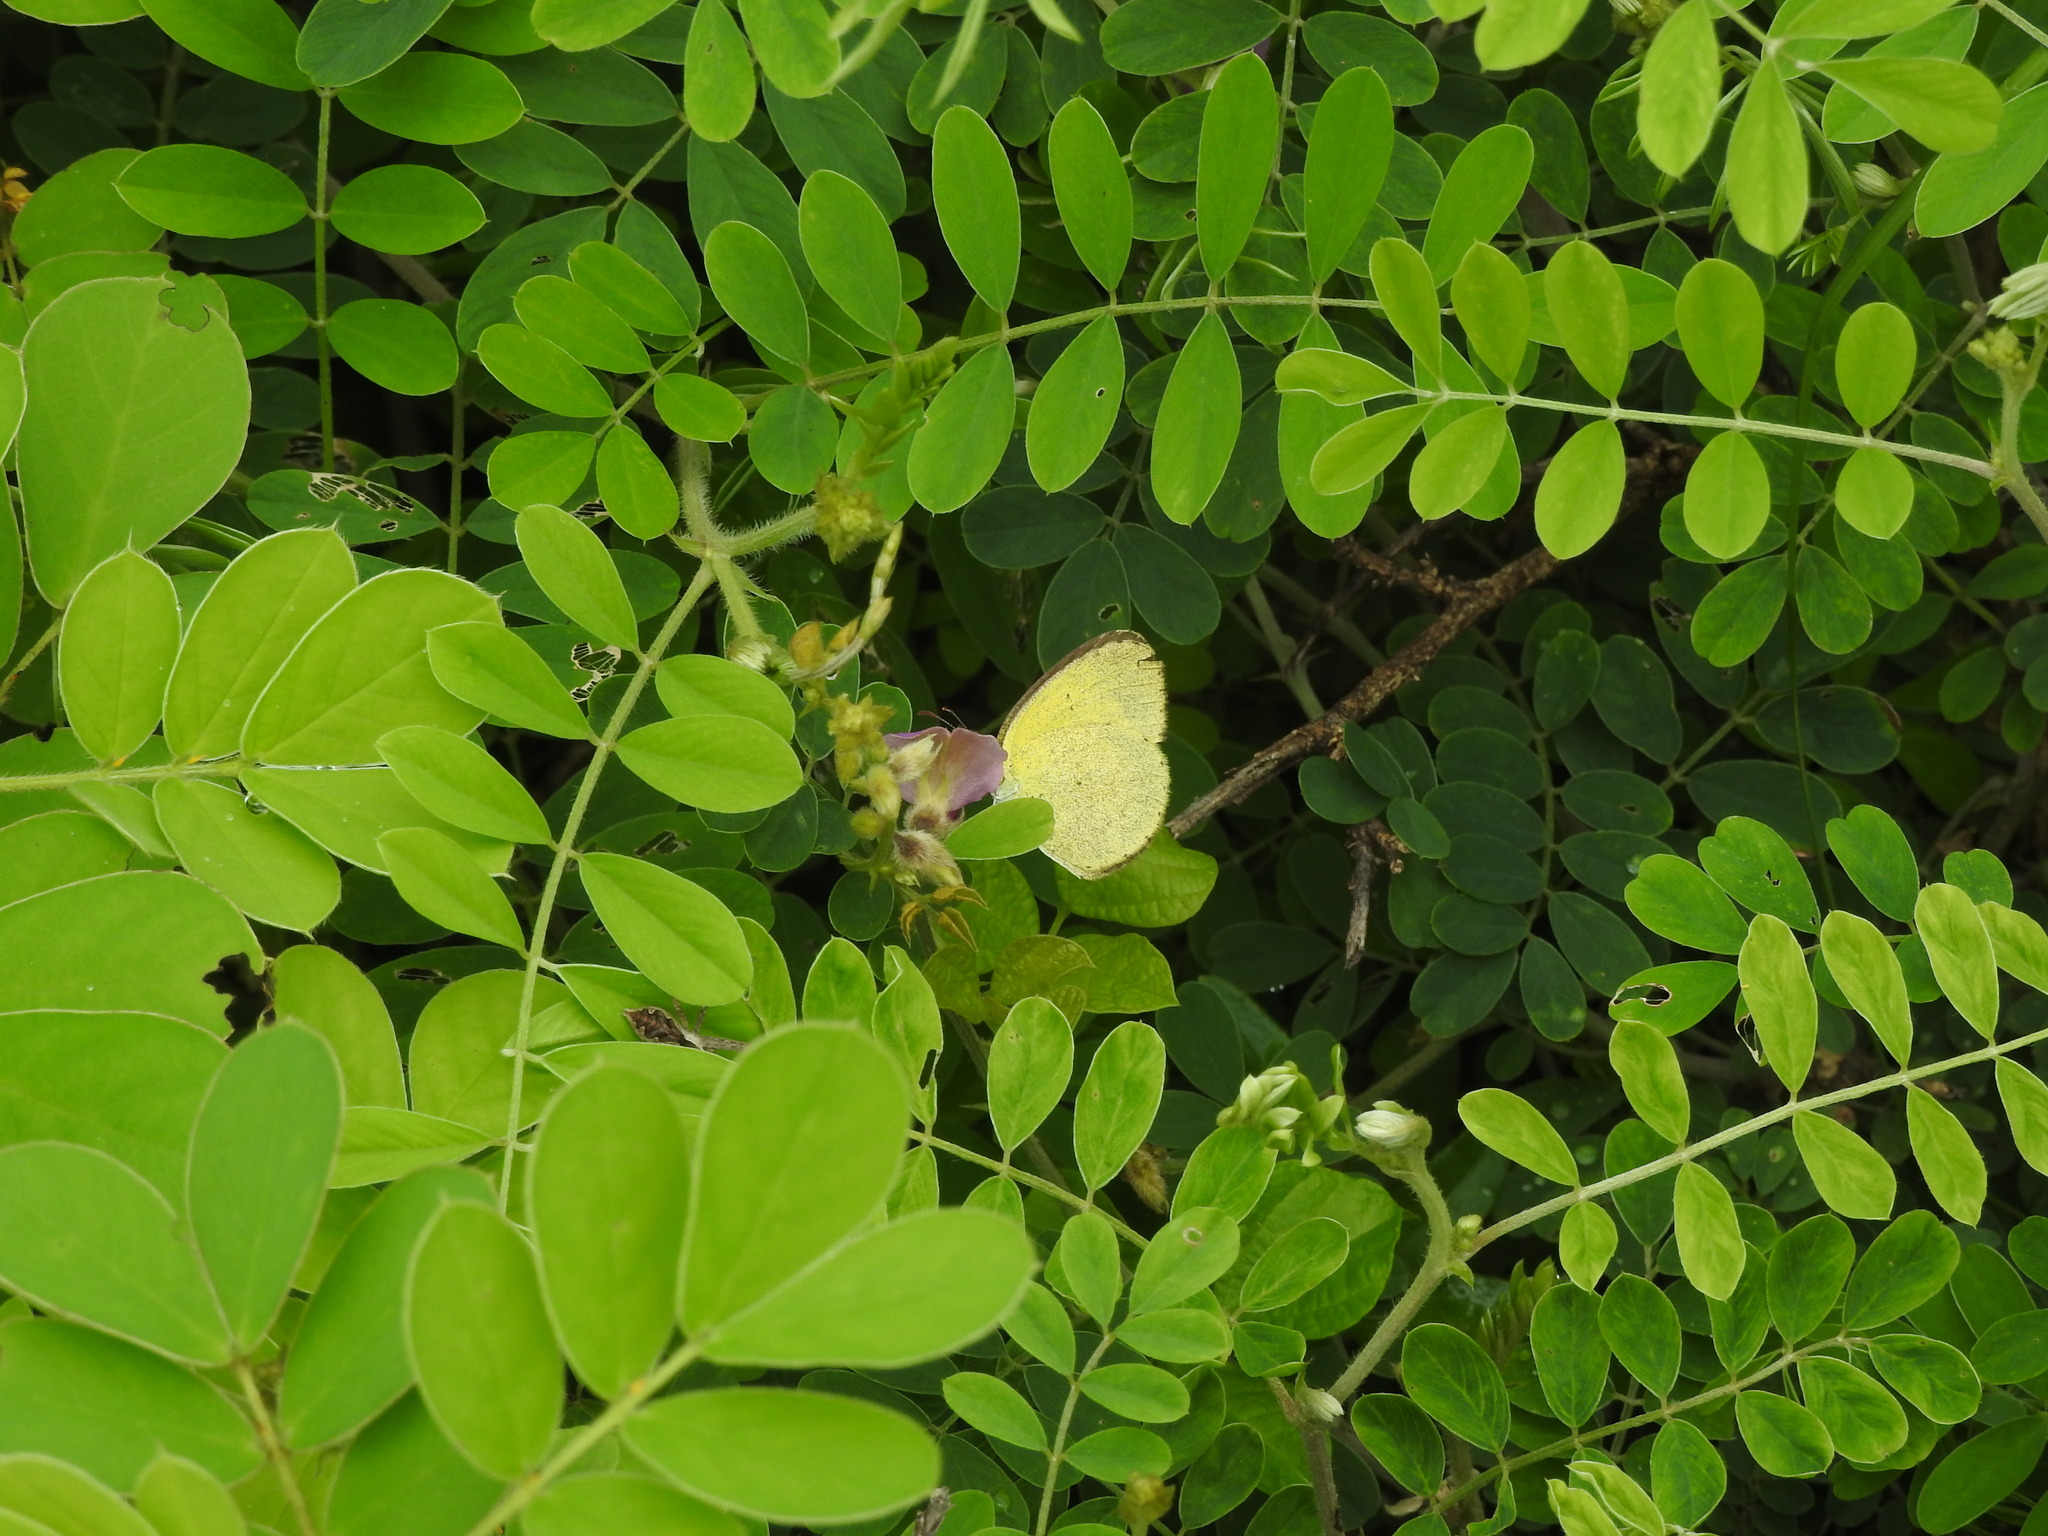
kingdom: Animalia
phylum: Arthropoda
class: Insecta
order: Lepidoptera
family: Pieridae
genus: Eurema
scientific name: Eurema brigitta
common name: Small grass yellow
